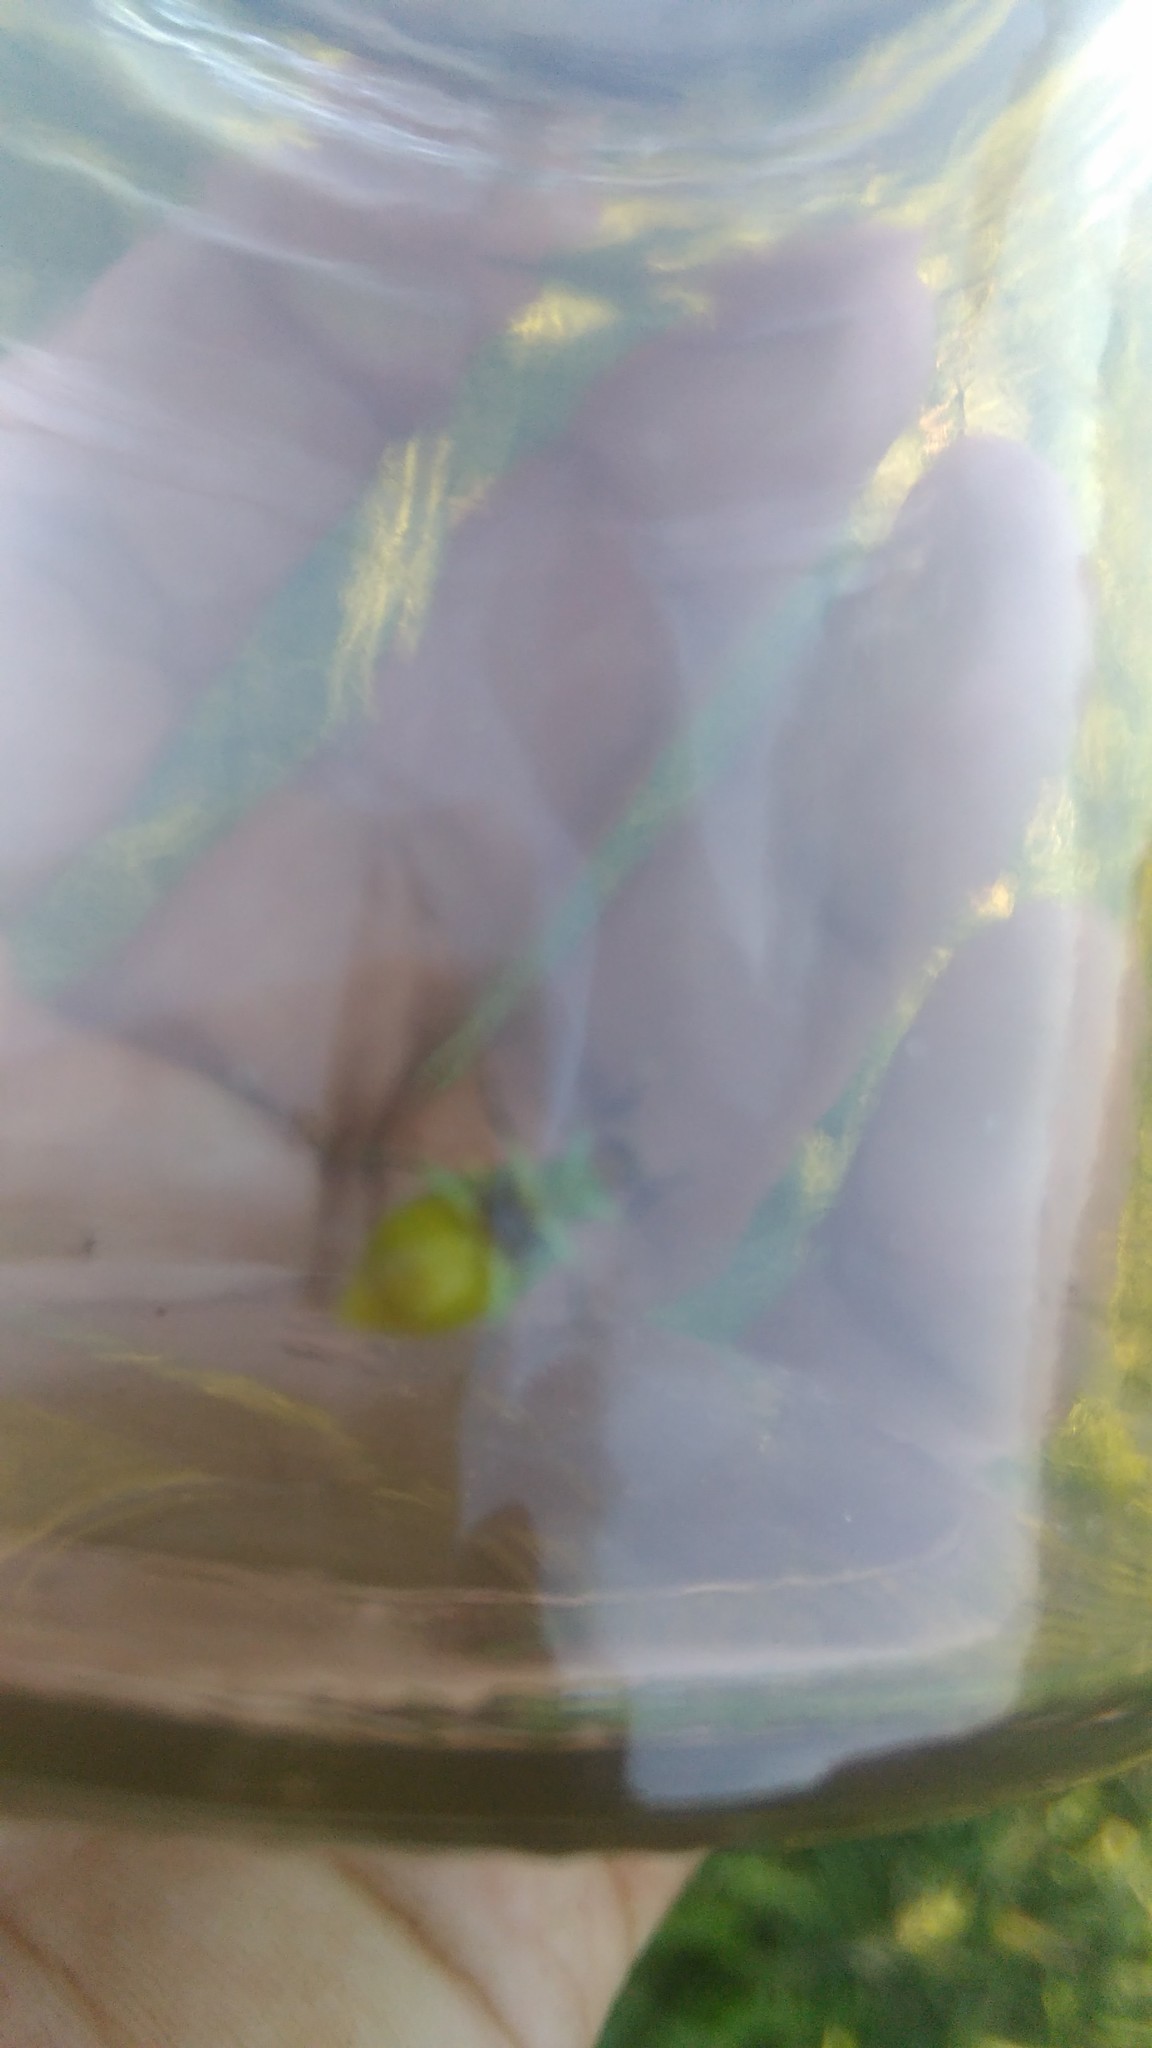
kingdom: Animalia
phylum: Arthropoda
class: Insecta
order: Coleoptera
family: Chrysomelidae
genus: Diabrotica
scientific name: Diabrotica speciosa
